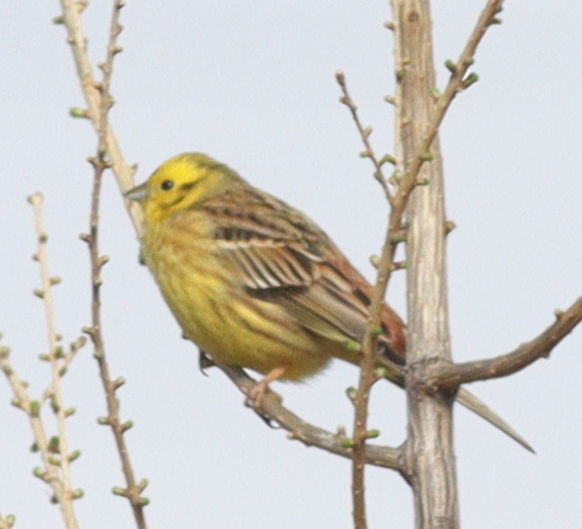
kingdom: Animalia
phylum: Chordata
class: Aves
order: Passeriformes
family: Emberizidae
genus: Emberiza
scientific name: Emberiza citrinella
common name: Yellowhammer
